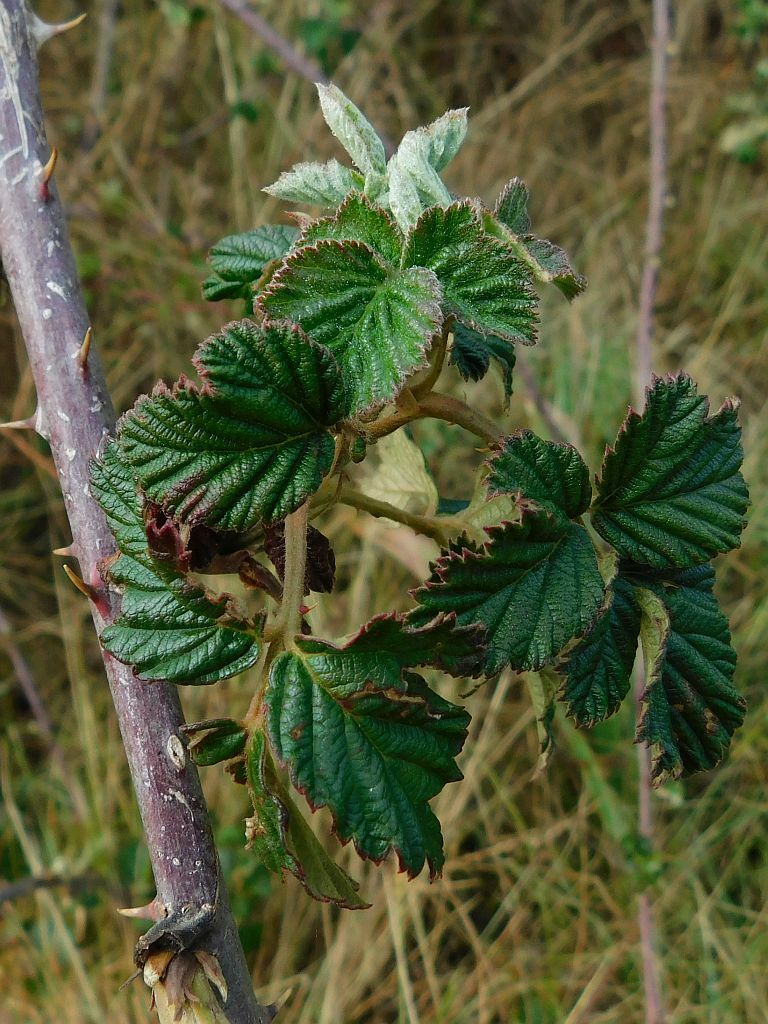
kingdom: Plantae
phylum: Tracheophyta
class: Magnoliopsida
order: Rosales
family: Rosaceae
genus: Rubus
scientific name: Rubus rigidus
